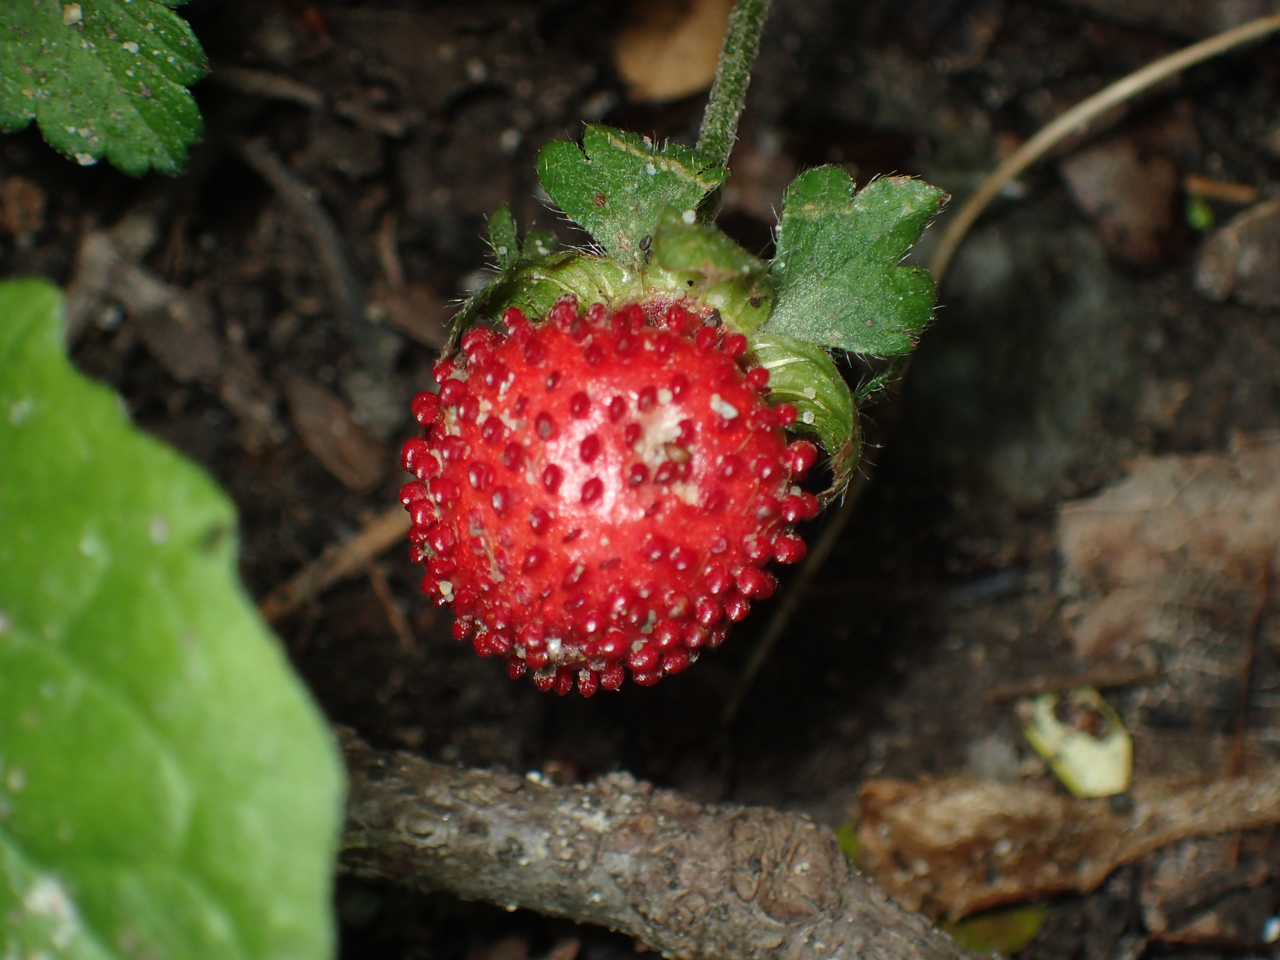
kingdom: Plantae
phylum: Tracheophyta
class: Magnoliopsida
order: Rosales
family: Rosaceae
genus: Potentilla
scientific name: Potentilla indica
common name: Yellow-flowered strawberry
